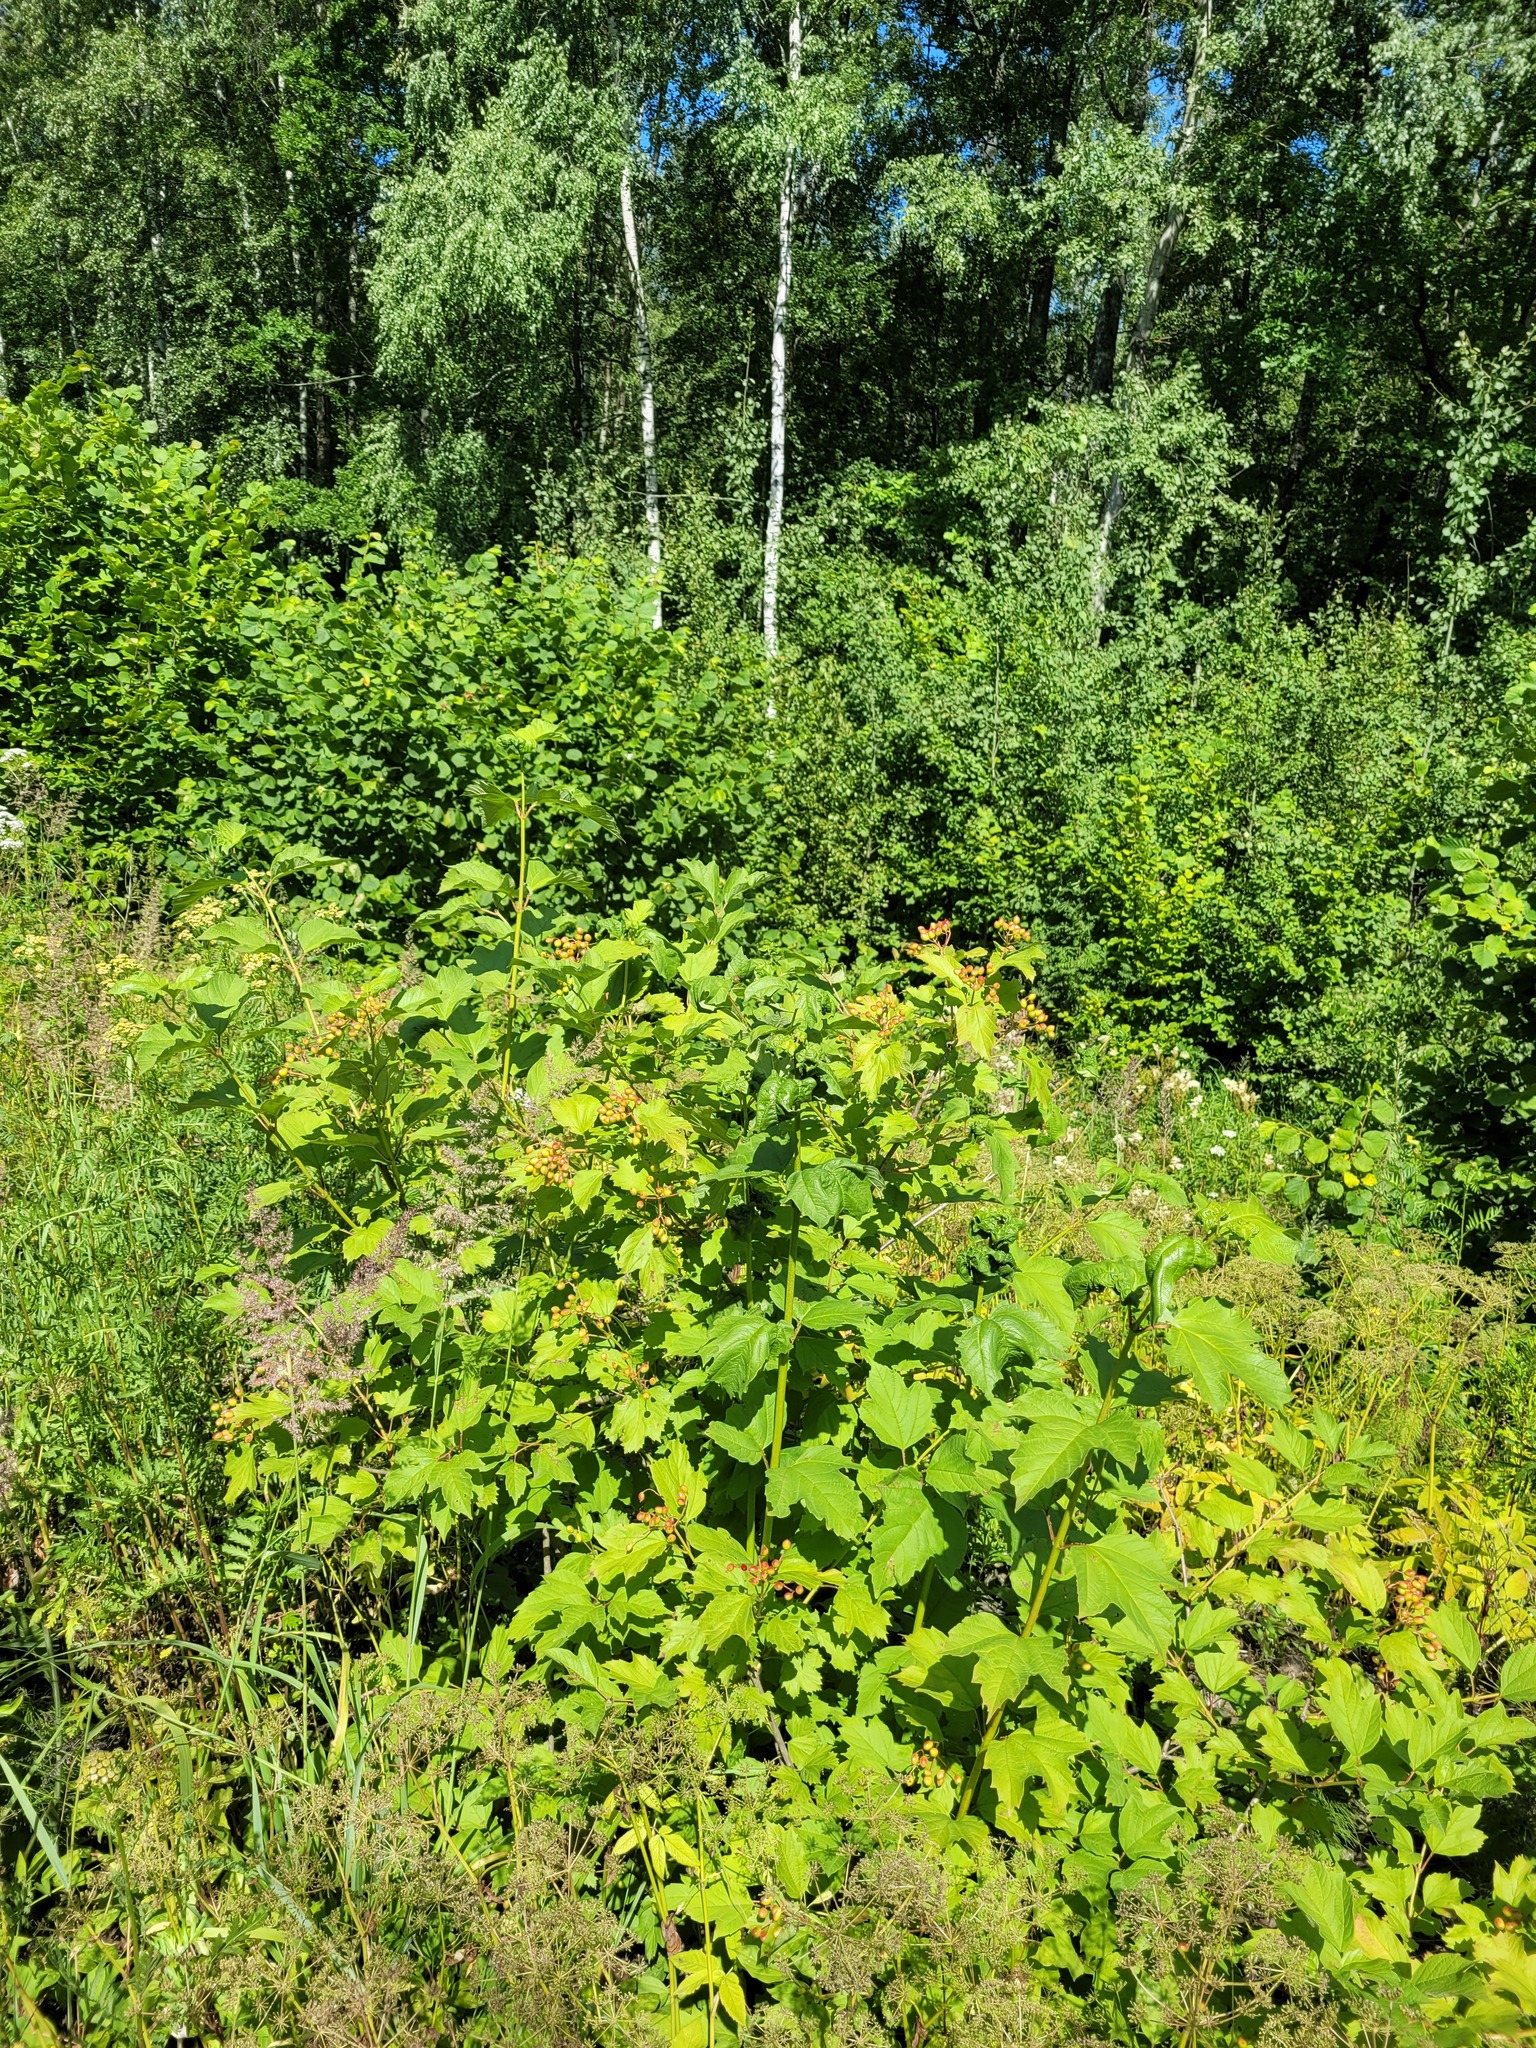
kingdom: Plantae
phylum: Tracheophyta
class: Magnoliopsida
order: Dipsacales
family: Viburnaceae
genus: Viburnum
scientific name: Viburnum opulus
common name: Guelder-rose
